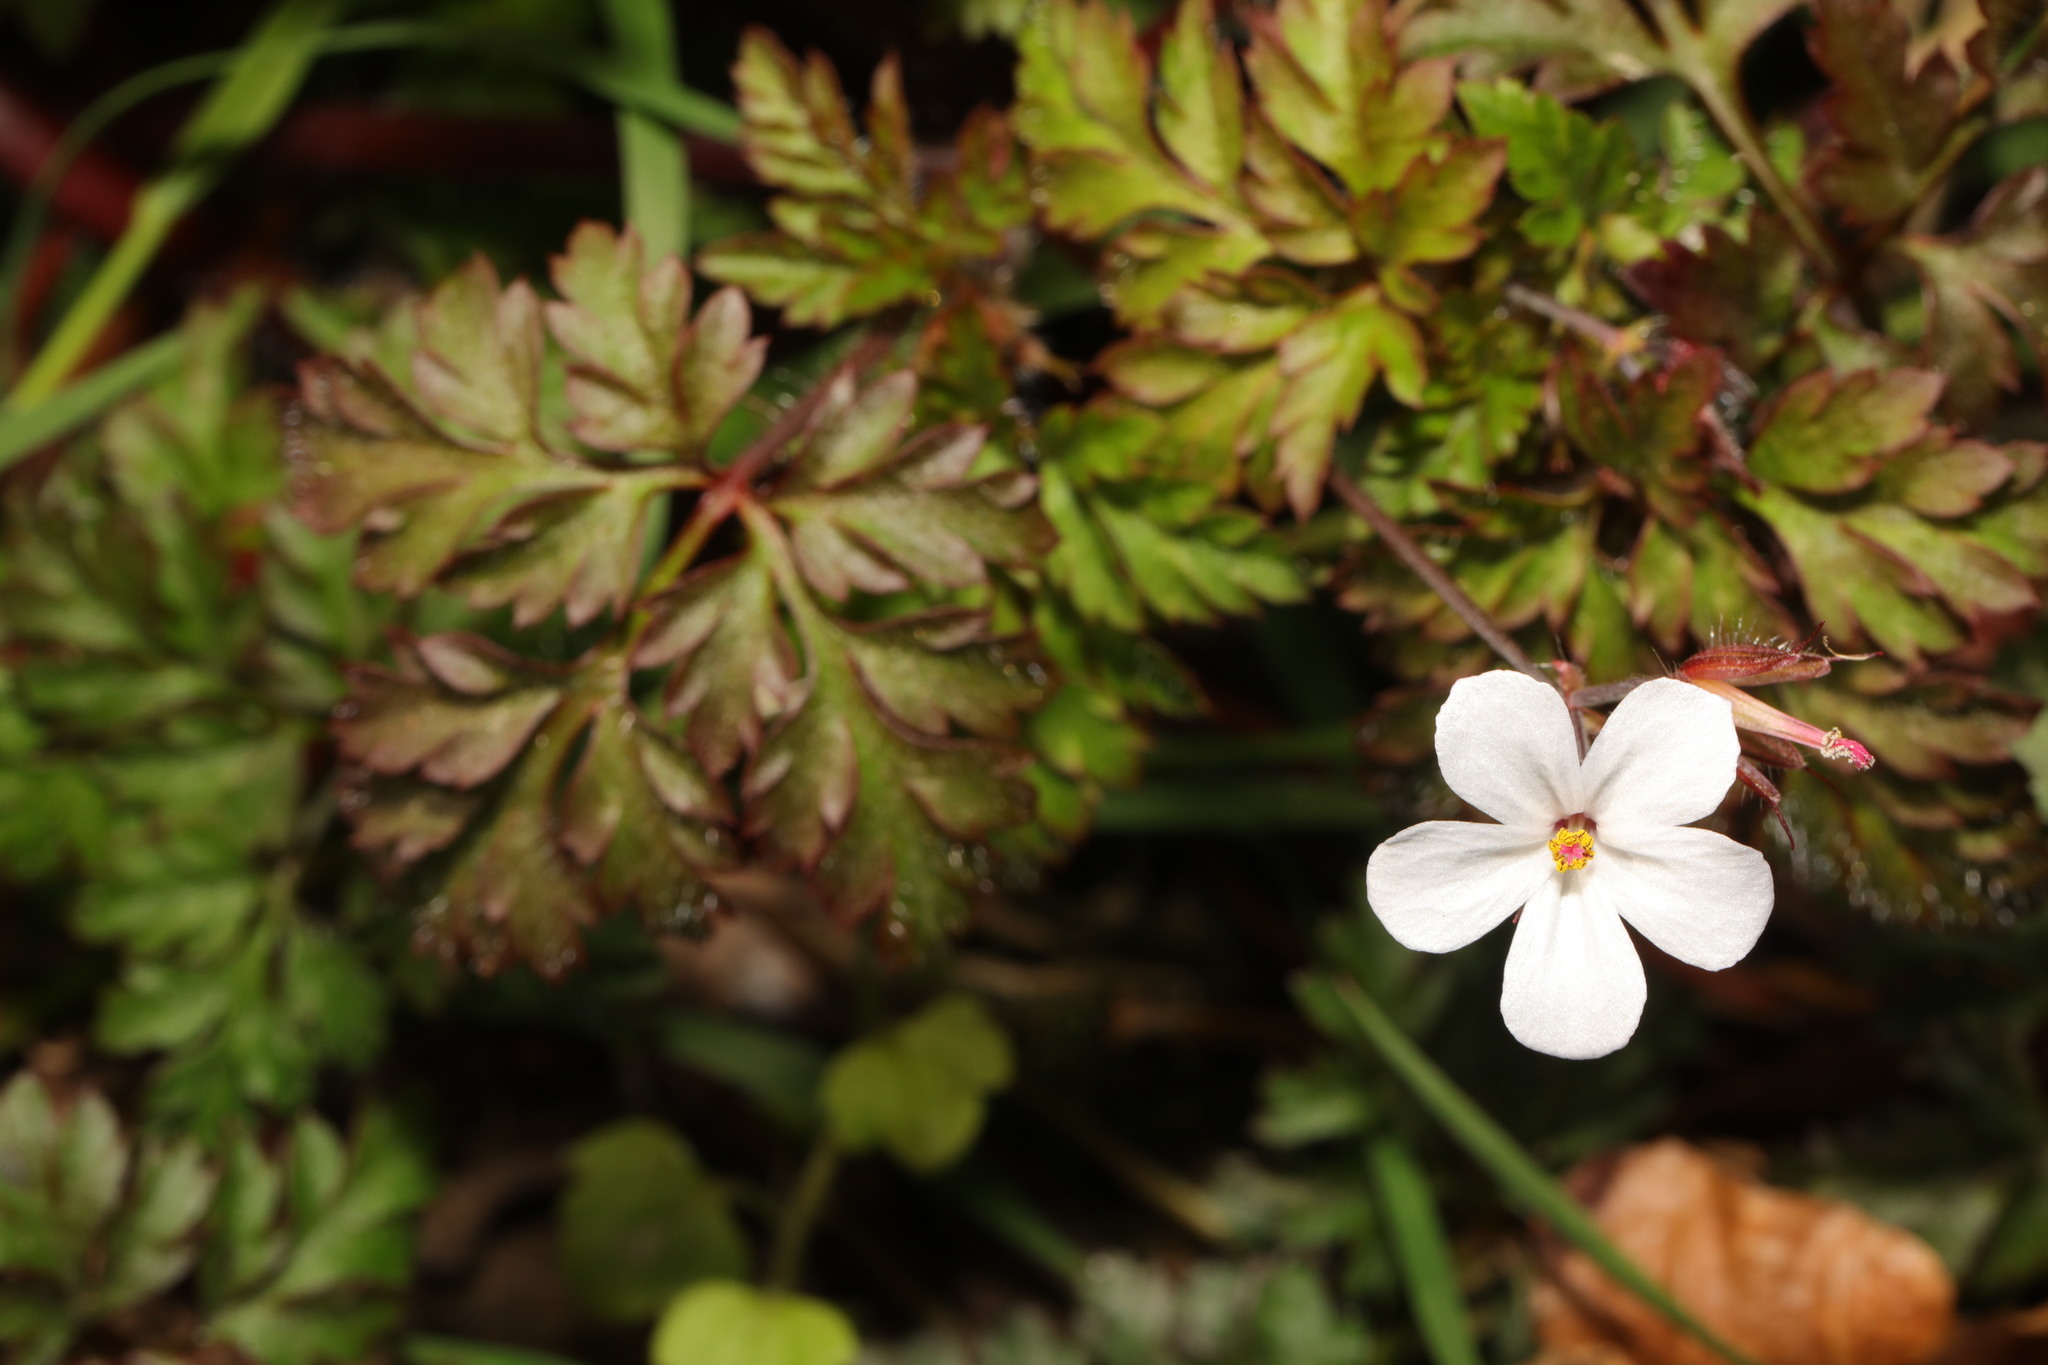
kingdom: Plantae
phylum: Tracheophyta
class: Magnoliopsida
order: Geraniales
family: Geraniaceae
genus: Geranium
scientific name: Geranium robertianum
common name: Herb-robert
